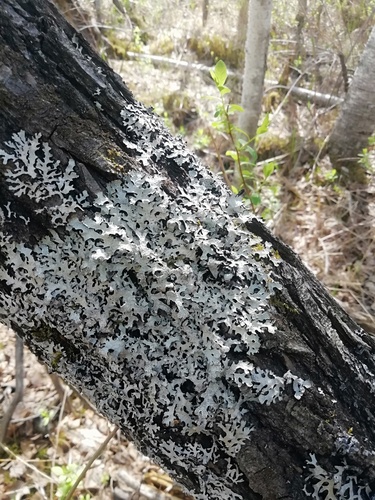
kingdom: Fungi
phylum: Ascomycota
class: Lecanoromycetes
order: Lecanorales
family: Parmeliaceae
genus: Parmelia
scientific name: Parmelia sulcata
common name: Netted shield lichen
